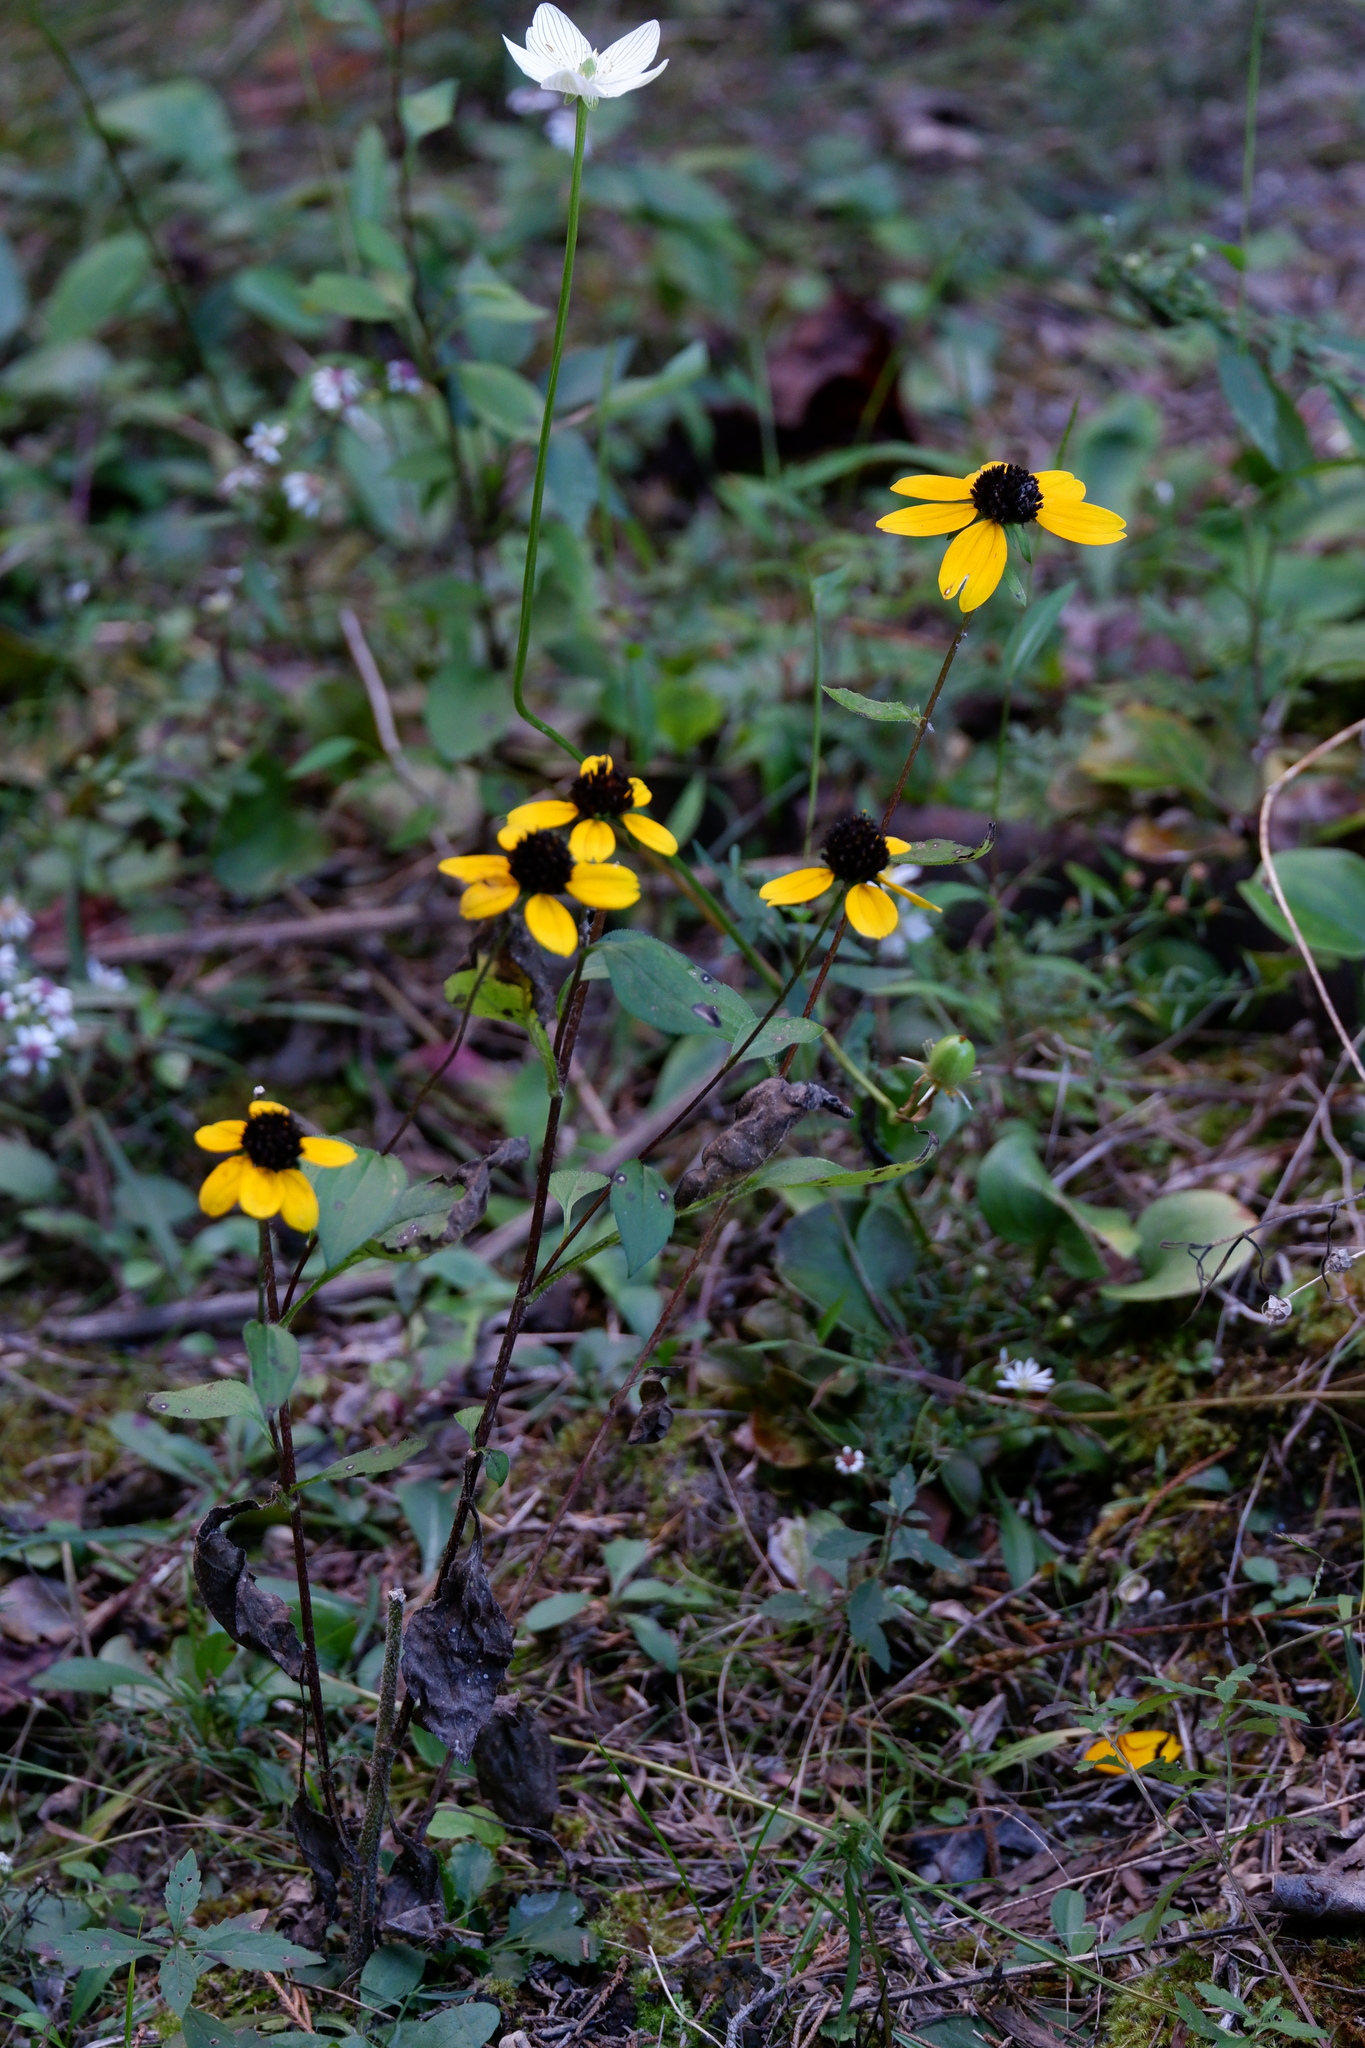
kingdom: Plantae
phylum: Tracheophyta
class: Magnoliopsida
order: Asterales
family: Asteraceae
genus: Rudbeckia
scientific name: Rudbeckia triloba
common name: Thin-leaved coneflower
